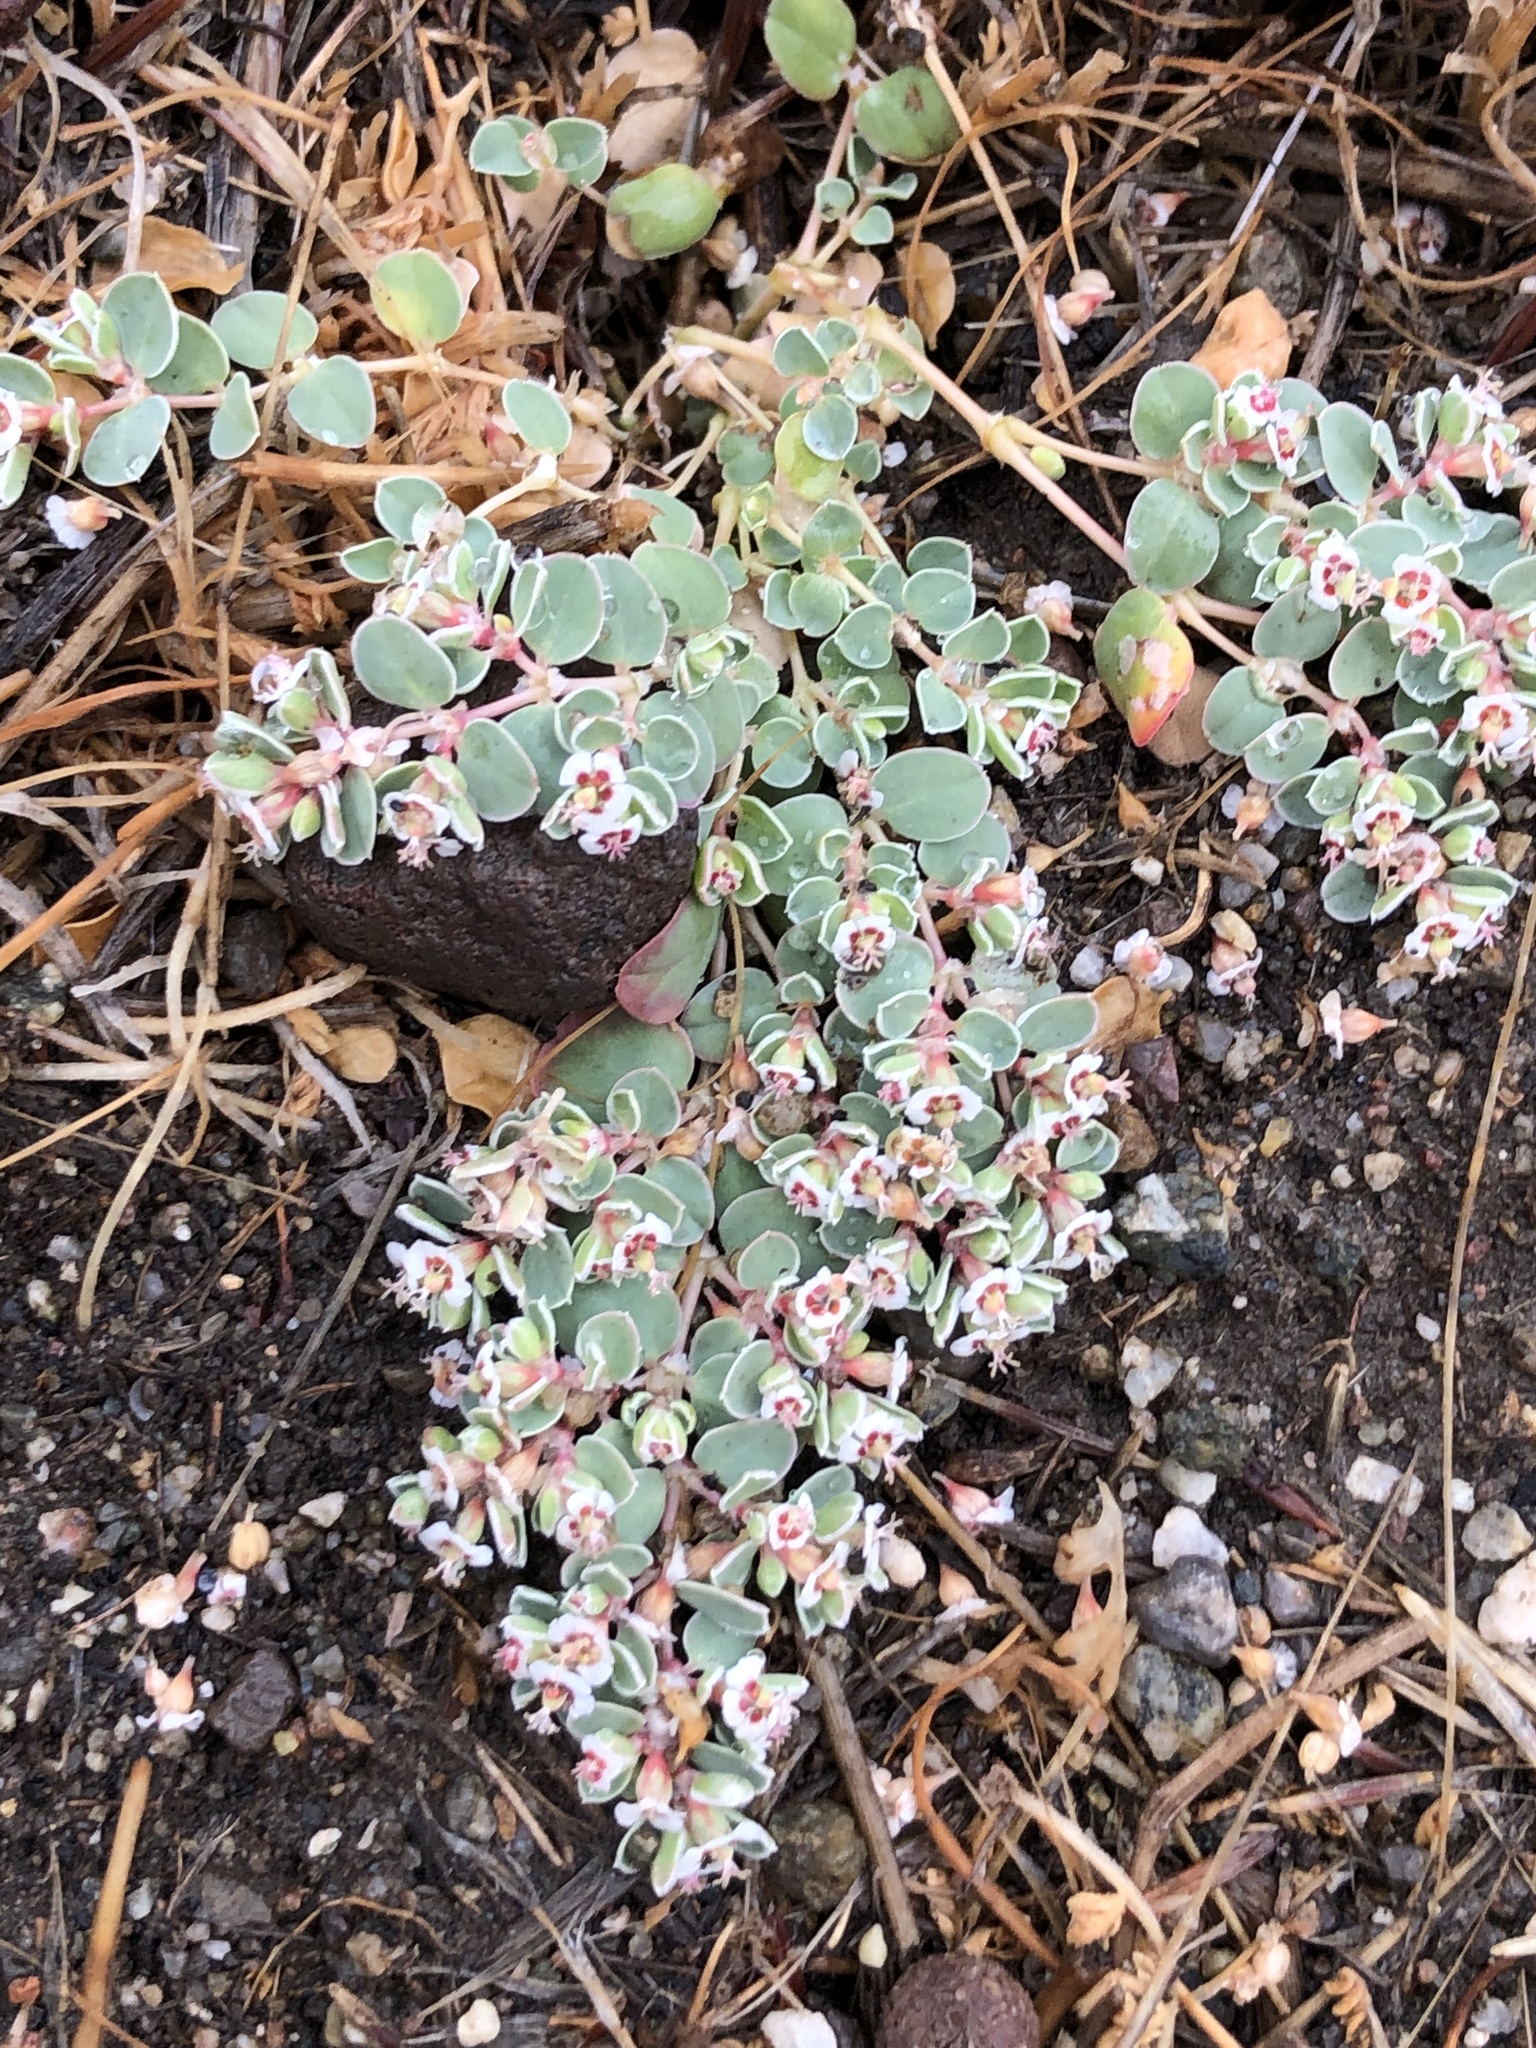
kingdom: Plantae
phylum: Tracheophyta
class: Magnoliopsida
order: Malpighiales
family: Euphorbiaceae
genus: Euphorbia
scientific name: Euphorbia albomarginata
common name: Whitemargin sandmat
